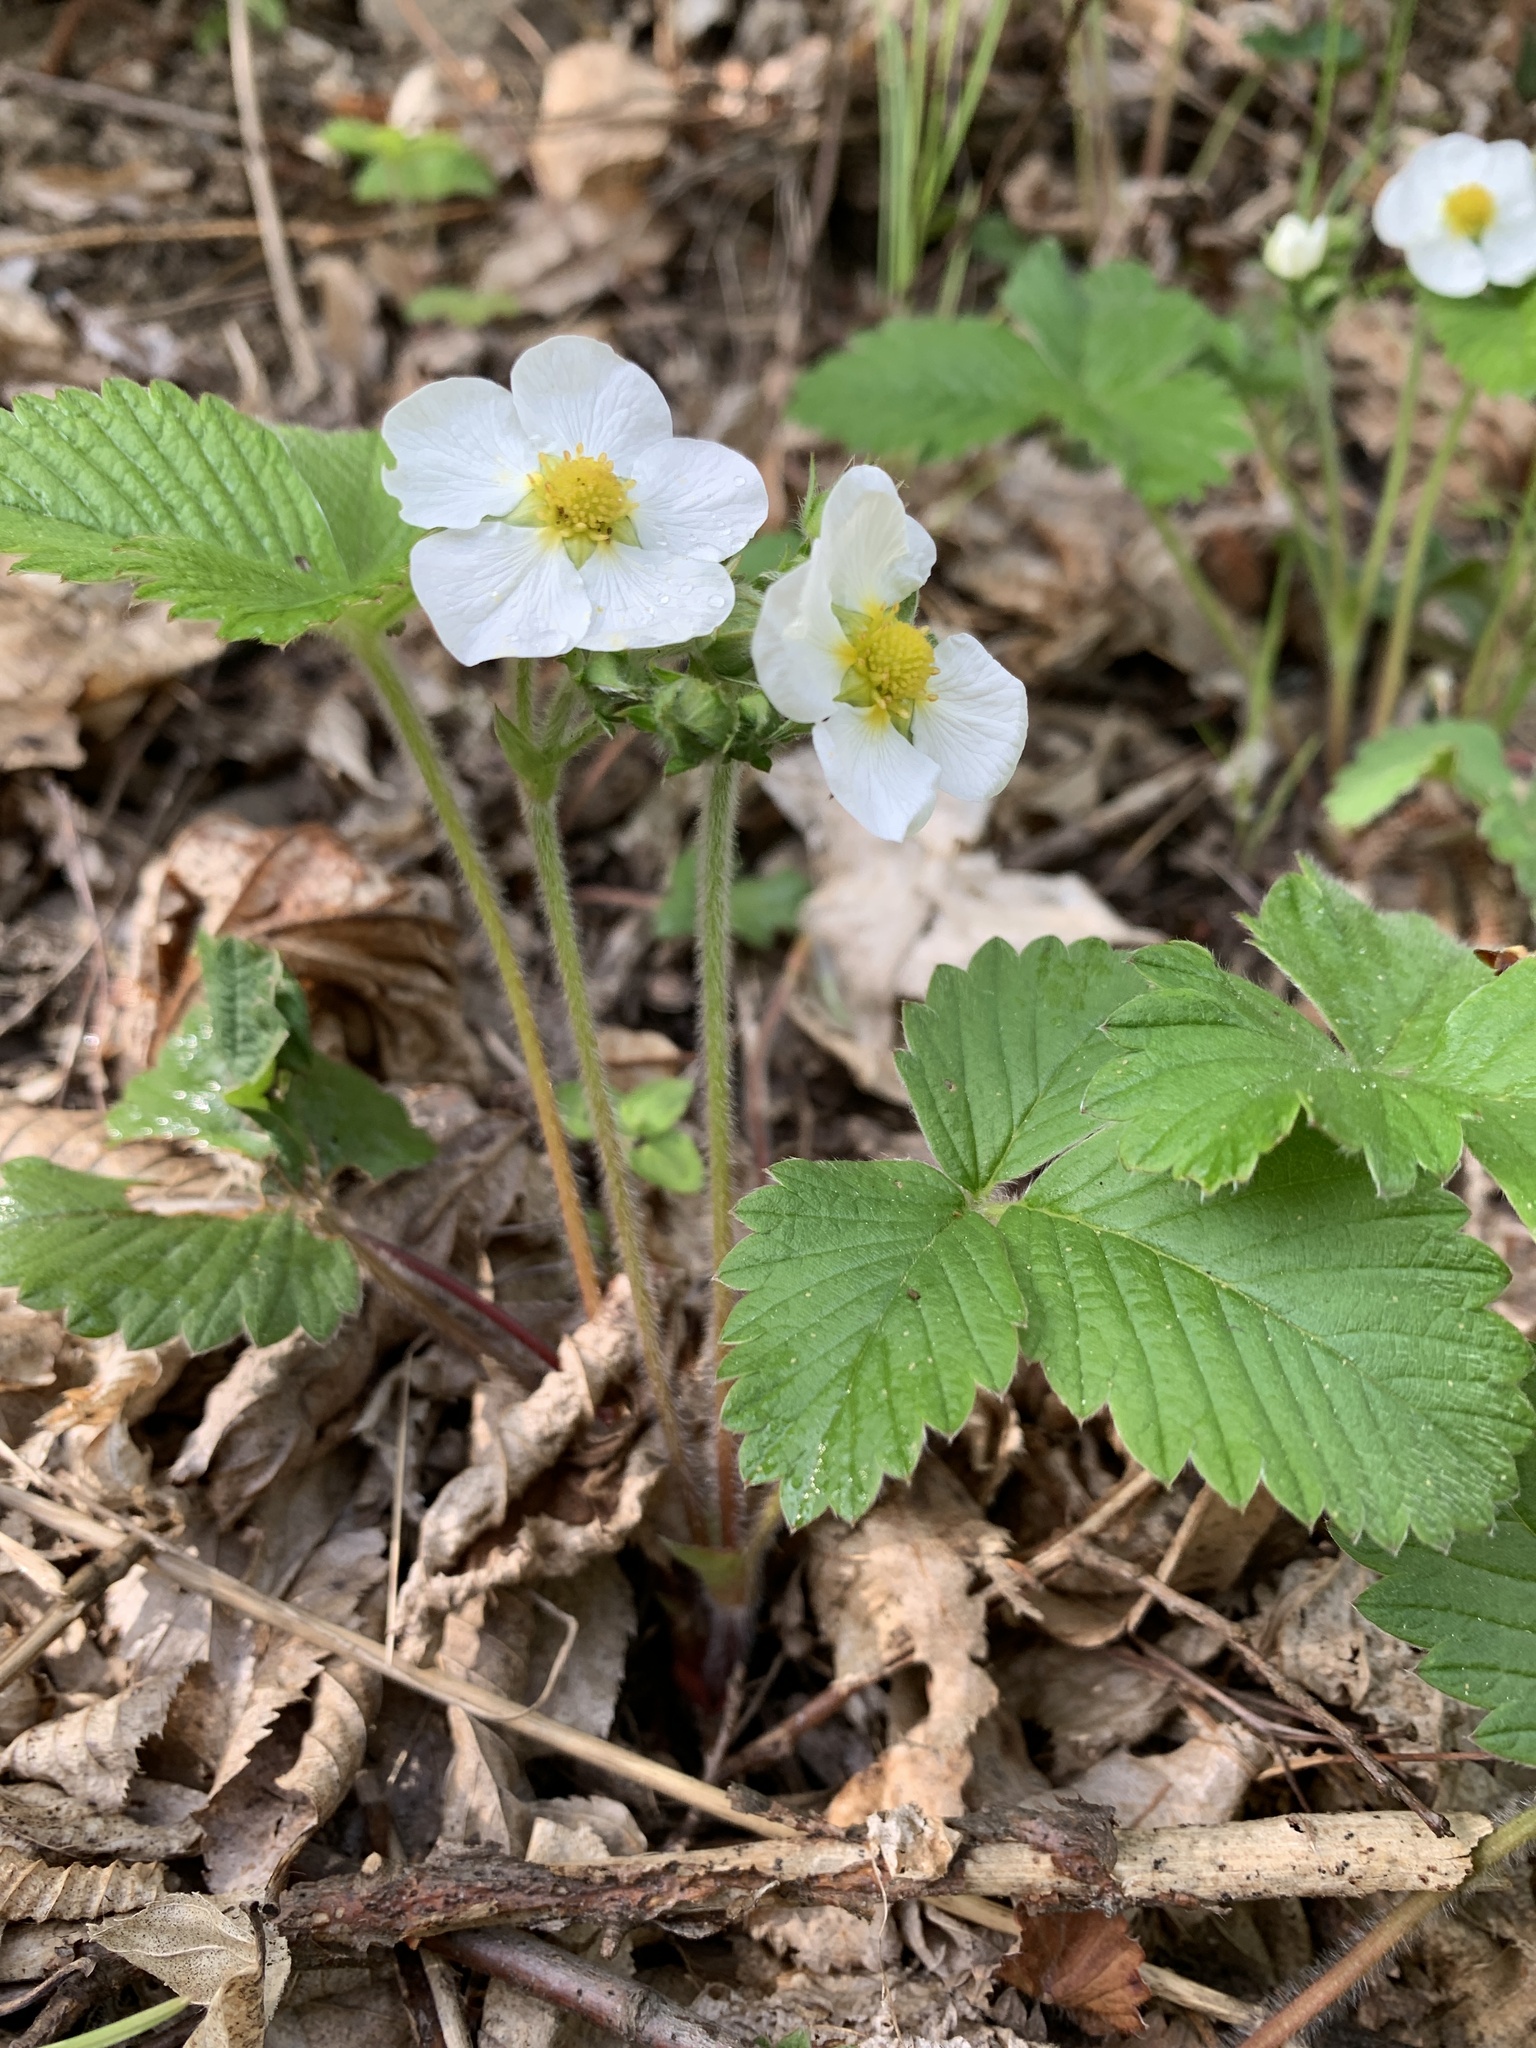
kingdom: Plantae
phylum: Tracheophyta
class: Magnoliopsida
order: Rosales
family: Rosaceae
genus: Fragaria
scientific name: Fragaria vesca
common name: Wild strawberry
